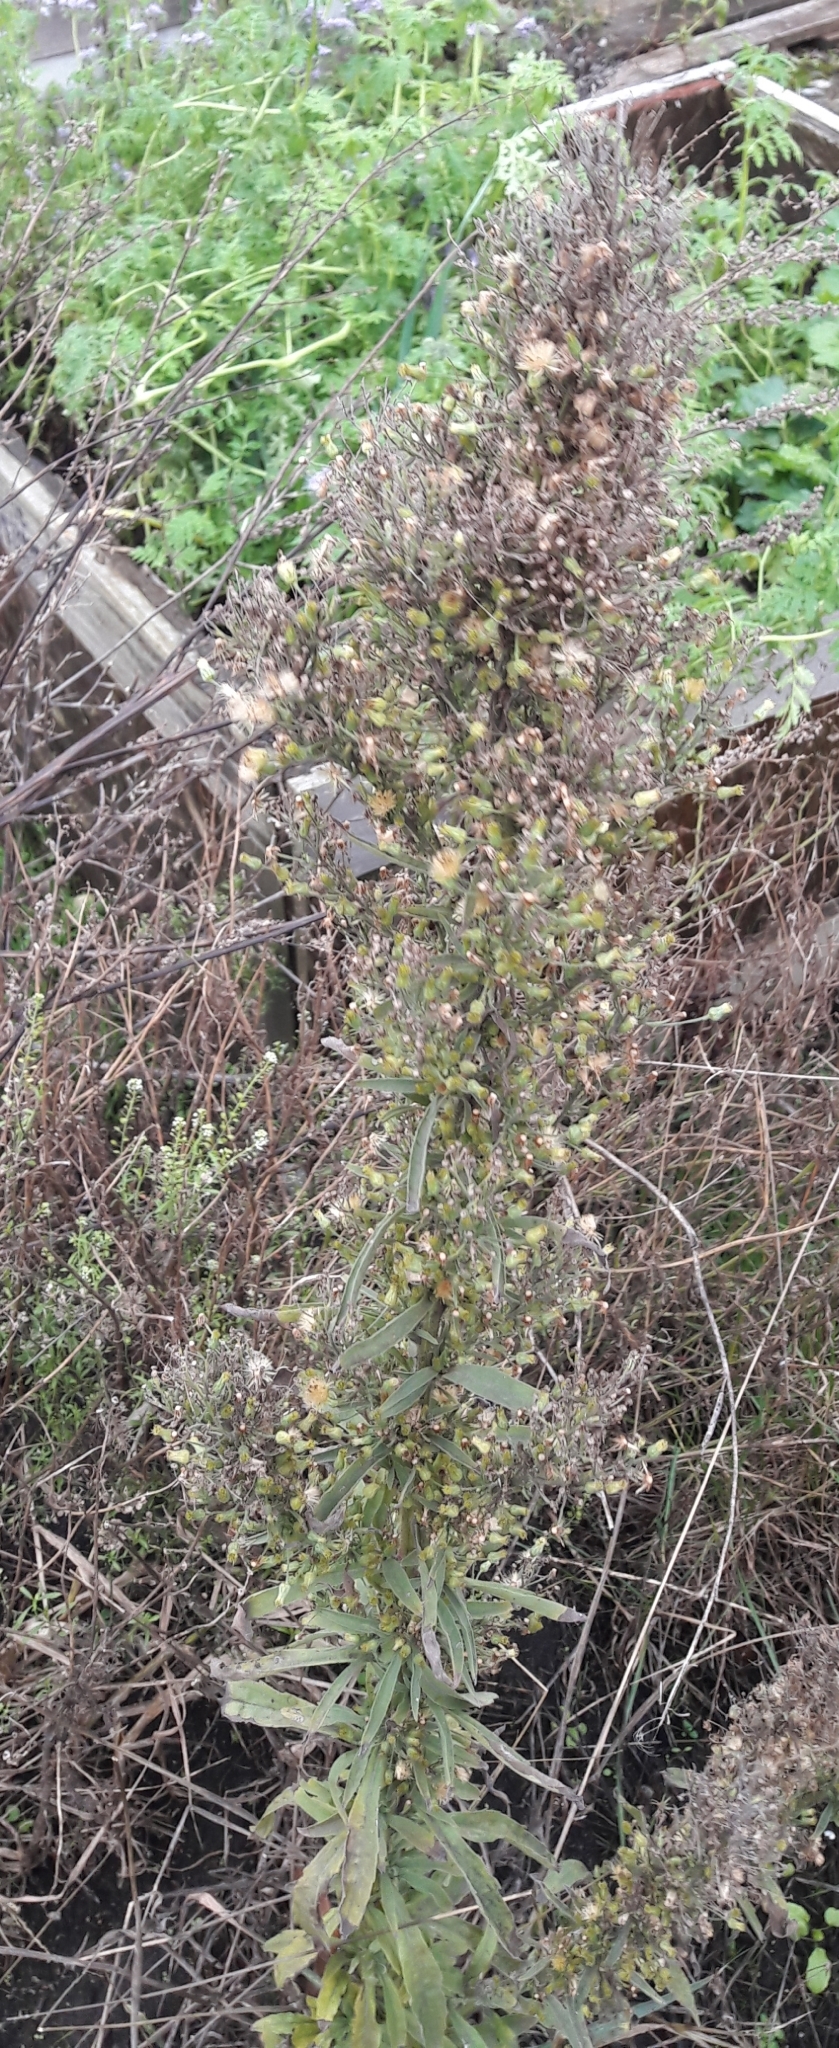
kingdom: Plantae
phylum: Tracheophyta
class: Magnoliopsida
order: Asterales
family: Asteraceae
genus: Erigeron
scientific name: Erigeron canadensis
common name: Canadian fleabane
